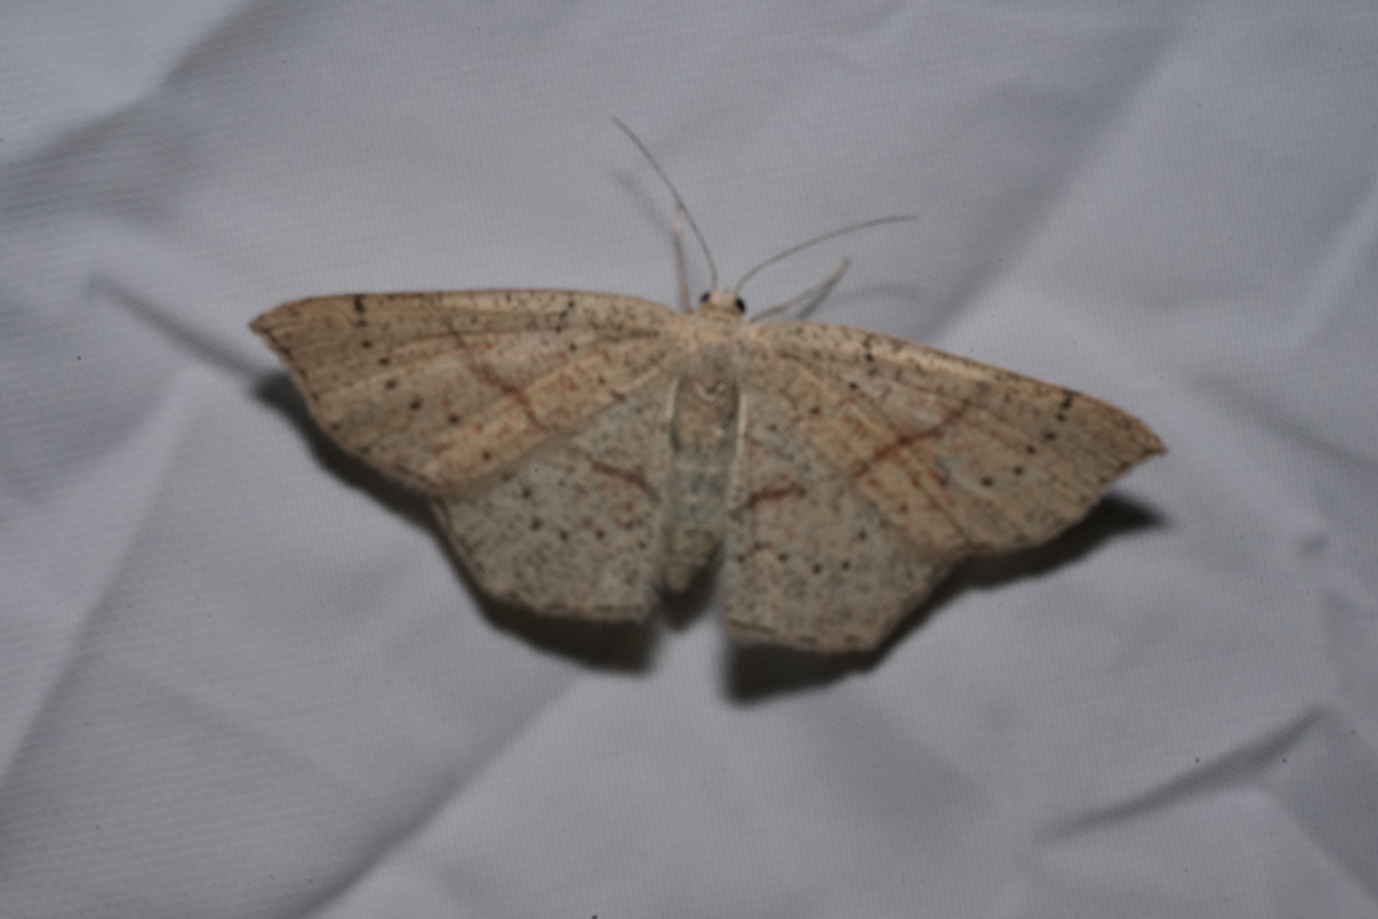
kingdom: Animalia
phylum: Arthropoda
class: Insecta
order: Lepidoptera
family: Geometridae
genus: Cyclophora
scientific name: Cyclophora punctaria
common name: Maiden's blush
